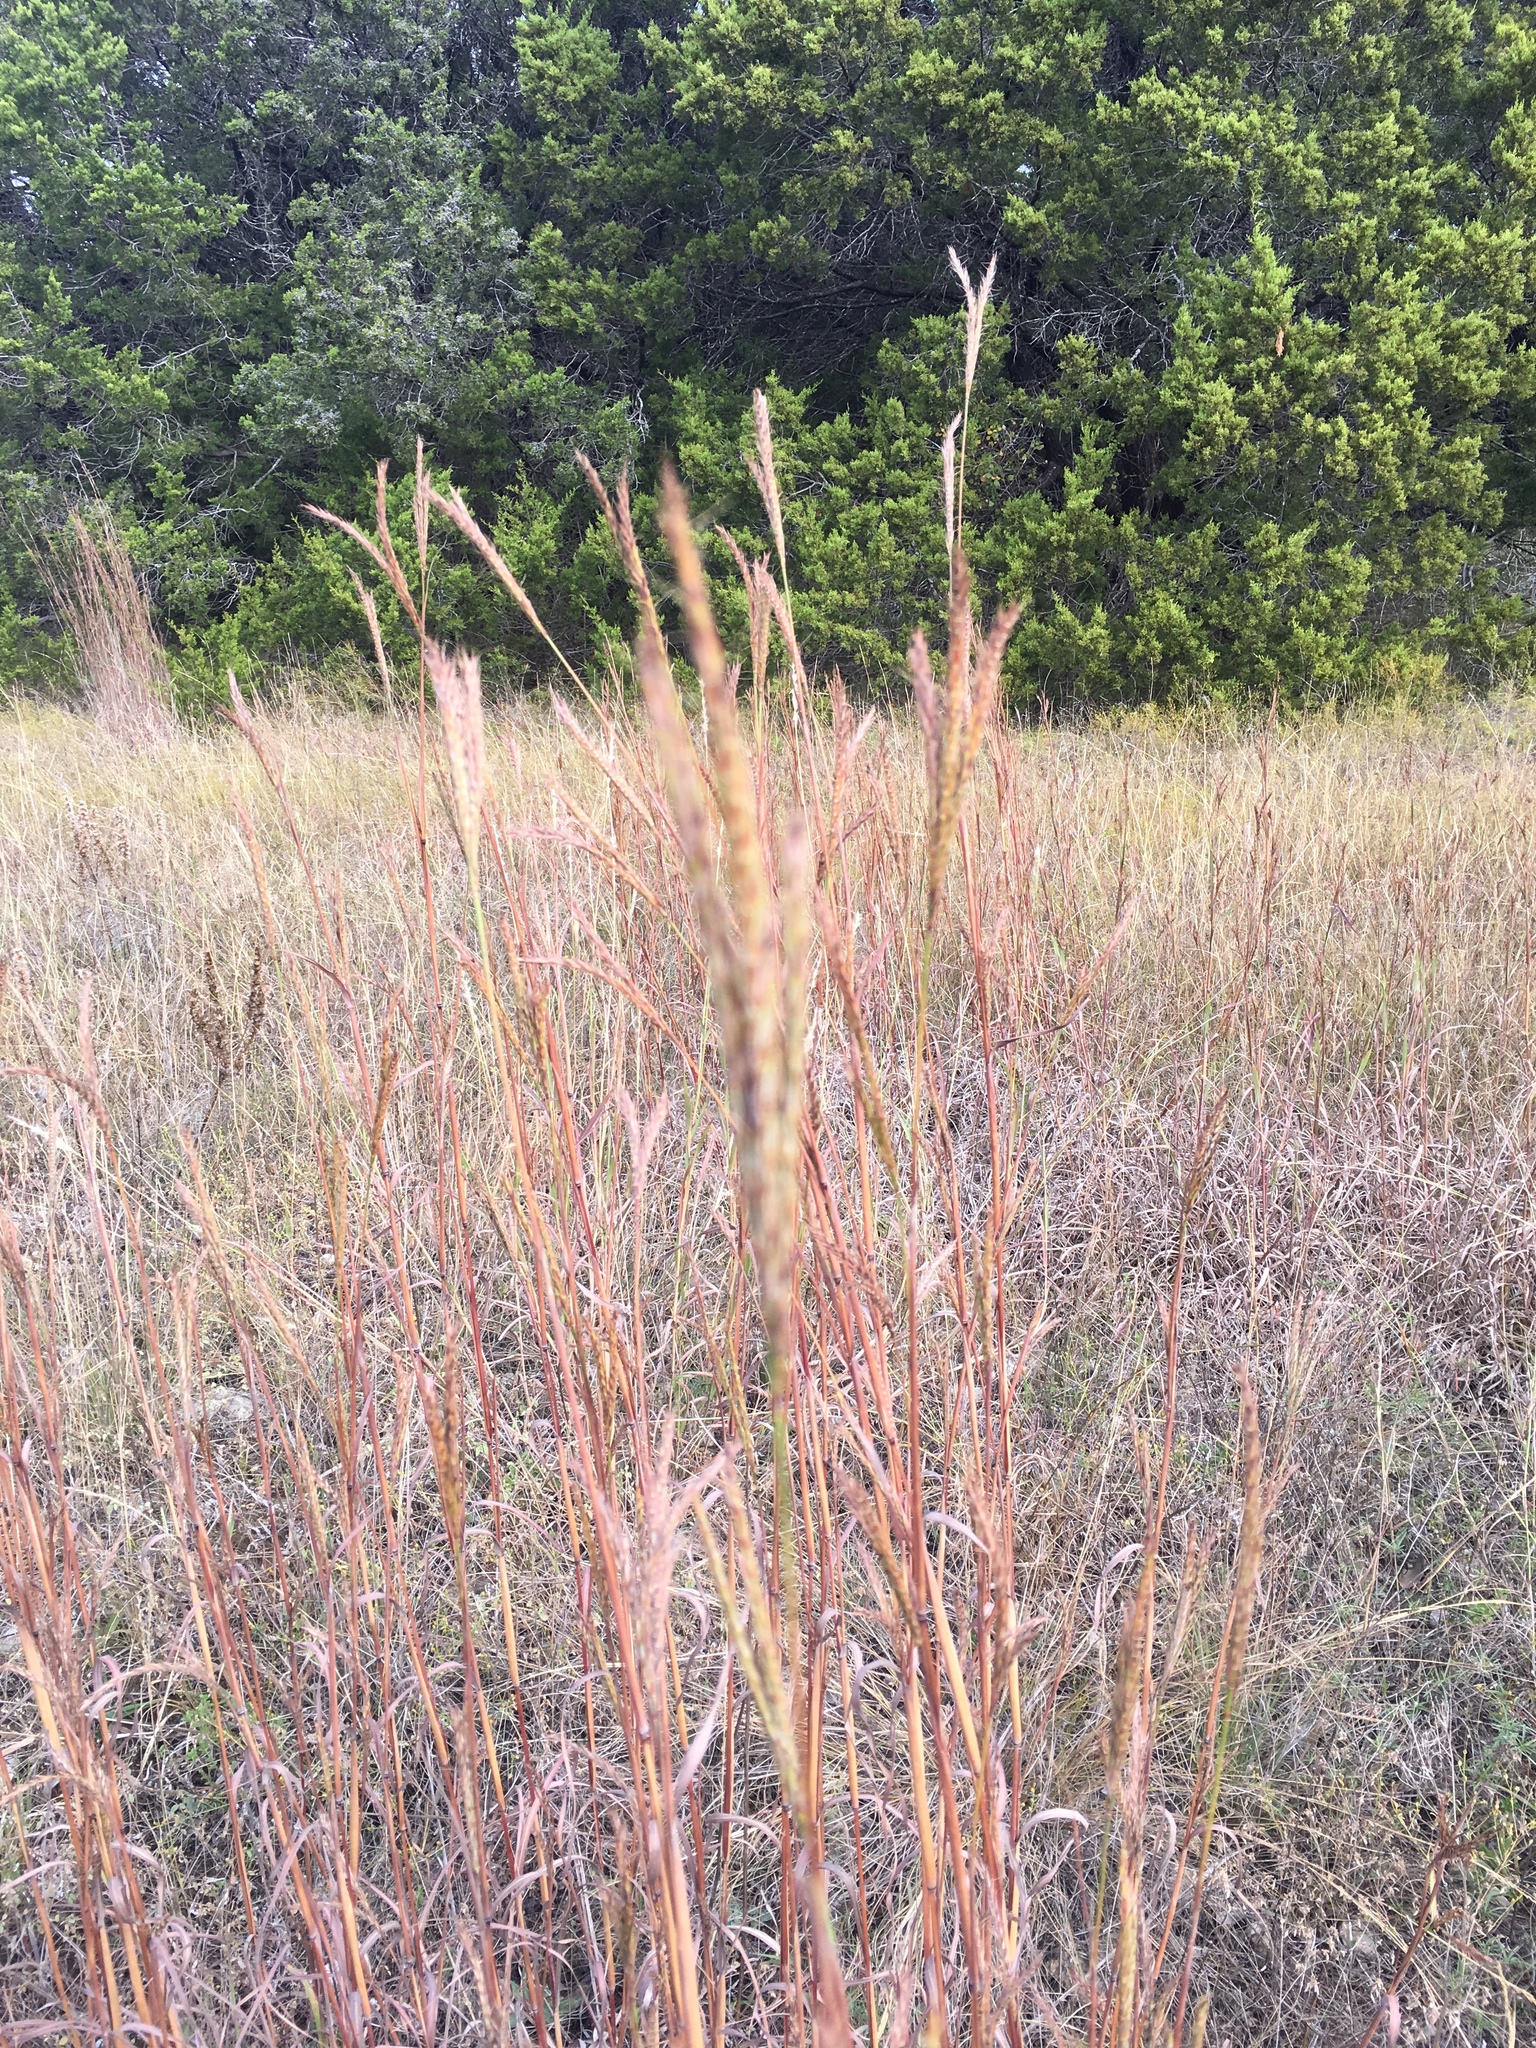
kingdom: Plantae
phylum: Tracheophyta
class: Liliopsida
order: Poales
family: Poaceae
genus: Andropogon
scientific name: Andropogon gerardi
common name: Big bluestem
